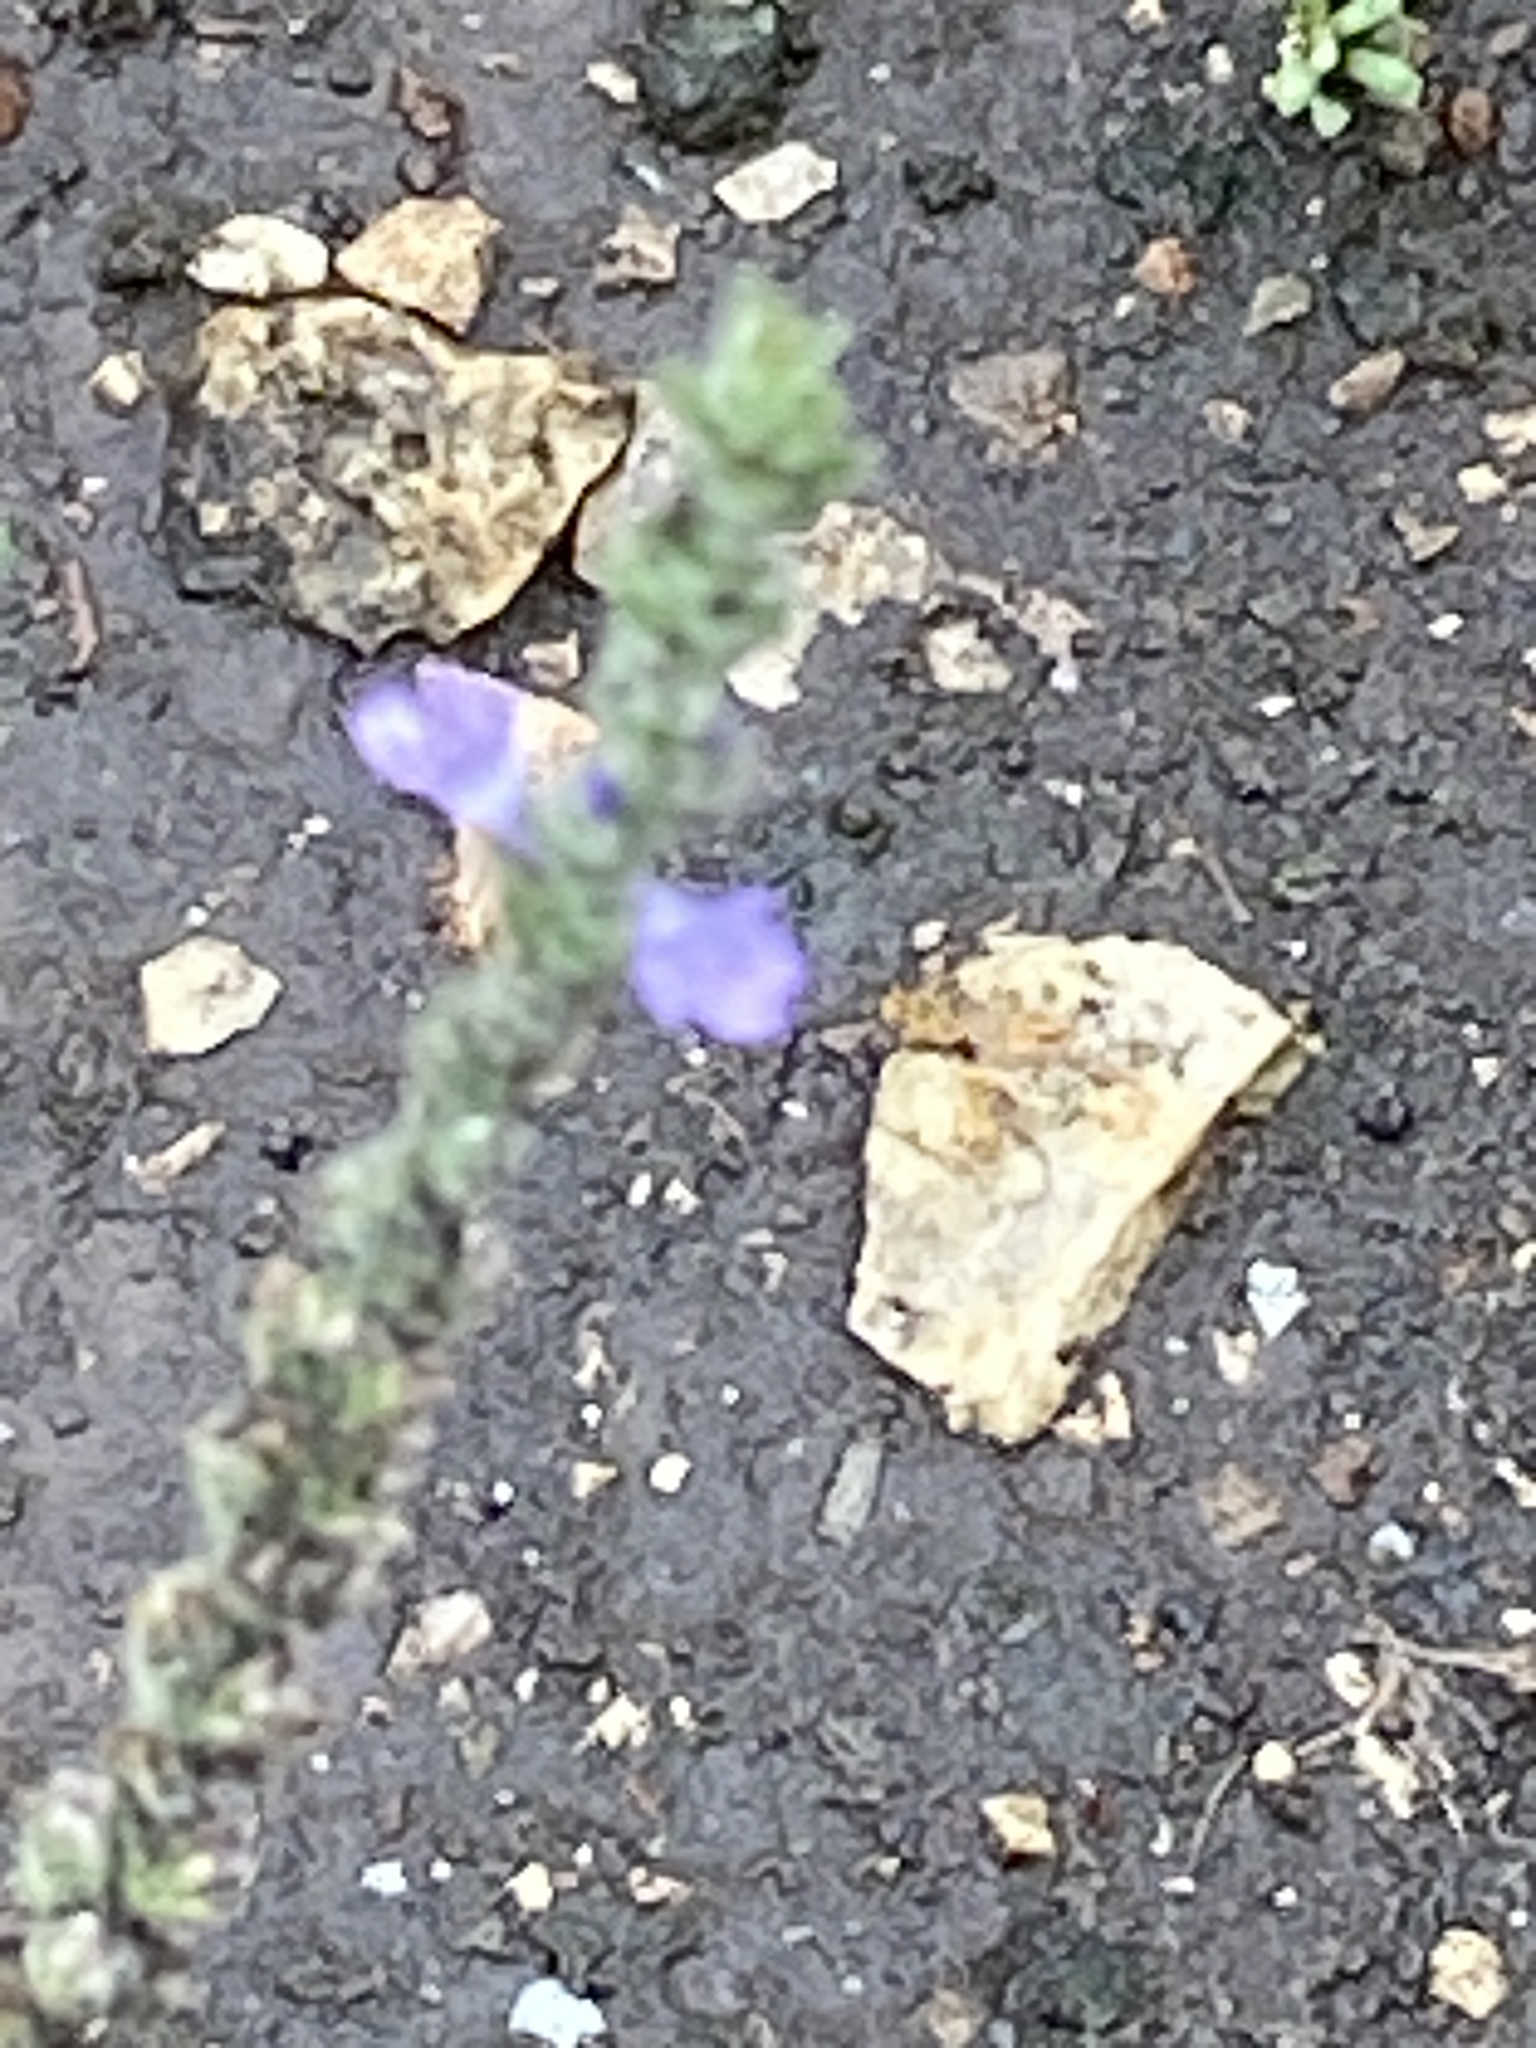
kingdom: Plantae
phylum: Tracheophyta
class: Magnoliopsida
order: Lamiales
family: Verbenaceae
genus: Verbena
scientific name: Verbena canescens
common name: Gray vervain
